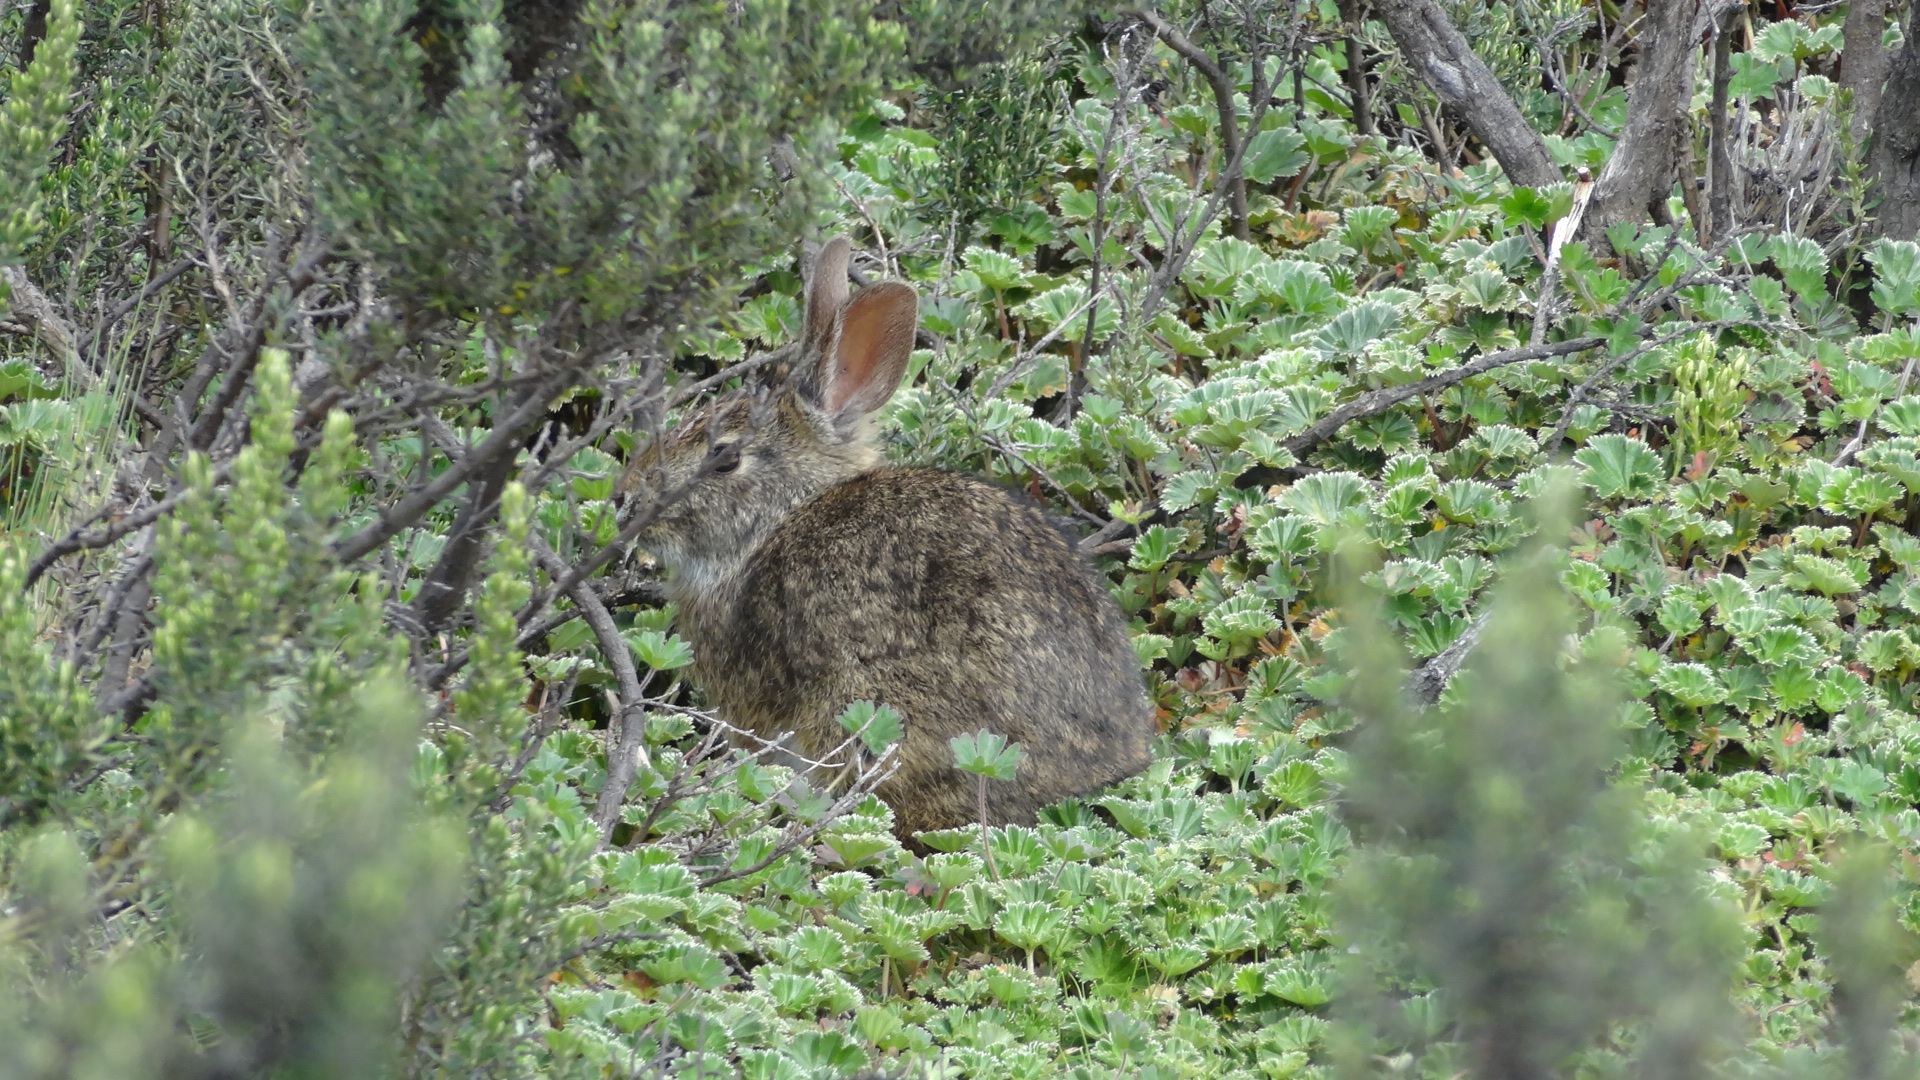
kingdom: Animalia
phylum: Chordata
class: Mammalia
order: Lagomorpha
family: Leporidae
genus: Sylvilagus
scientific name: Sylvilagus andinus
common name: Andean cottontail
